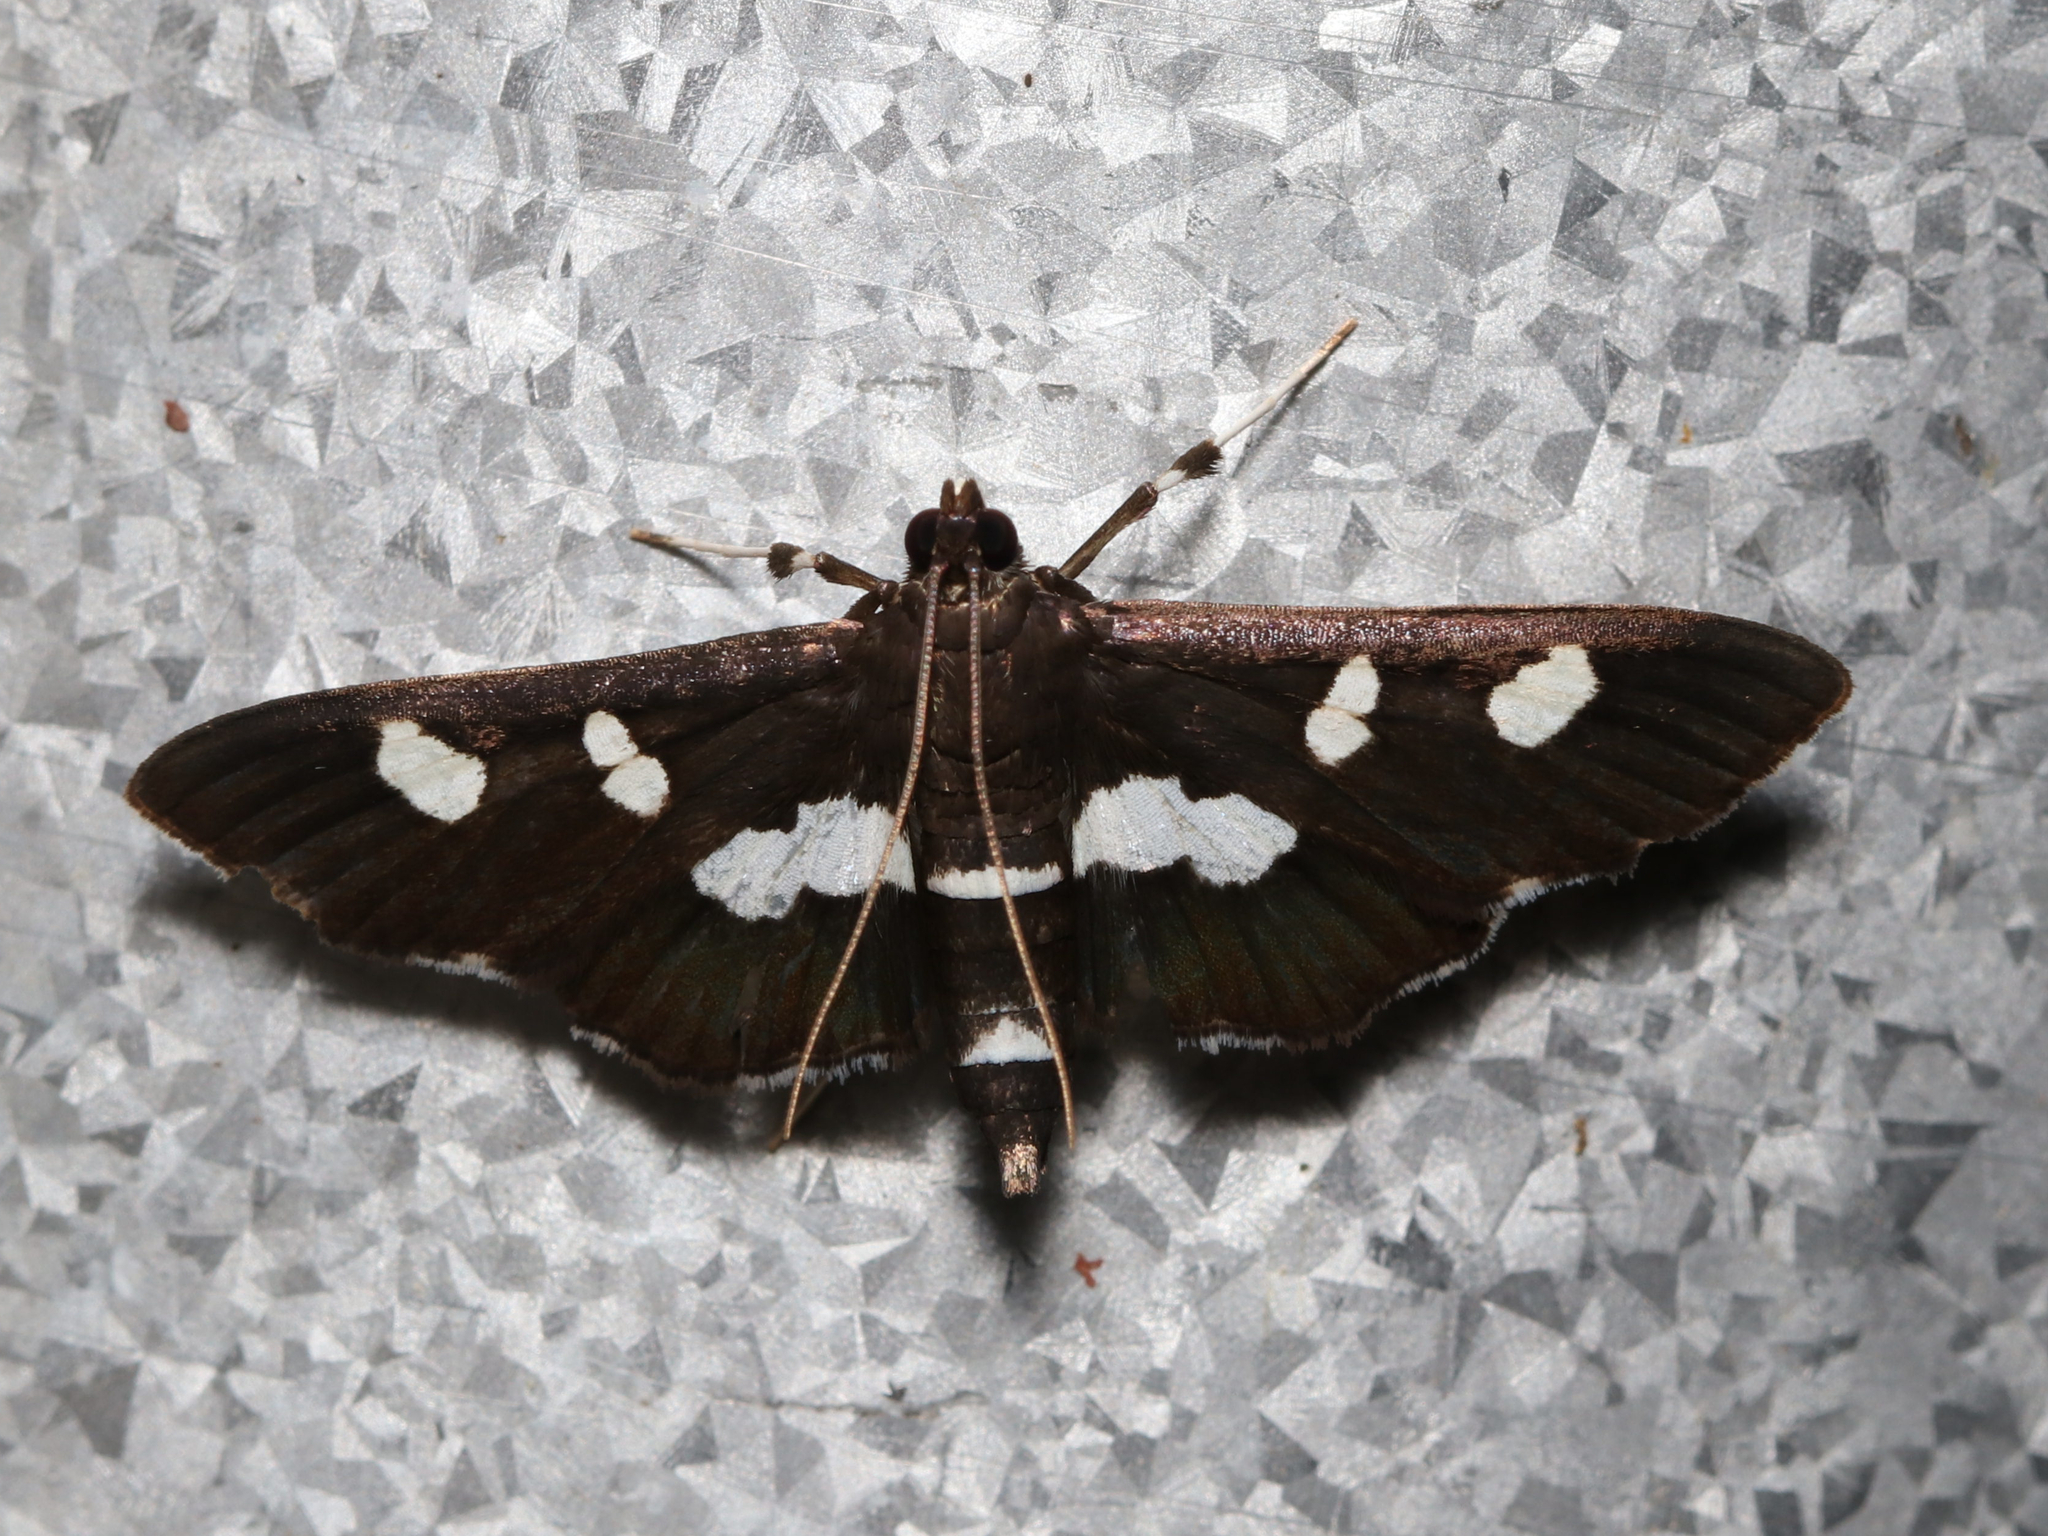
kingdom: Animalia
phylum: Arthropoda
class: Insecta
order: Lepidoptera
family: Crambidae
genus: Desmia
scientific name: Desmia
